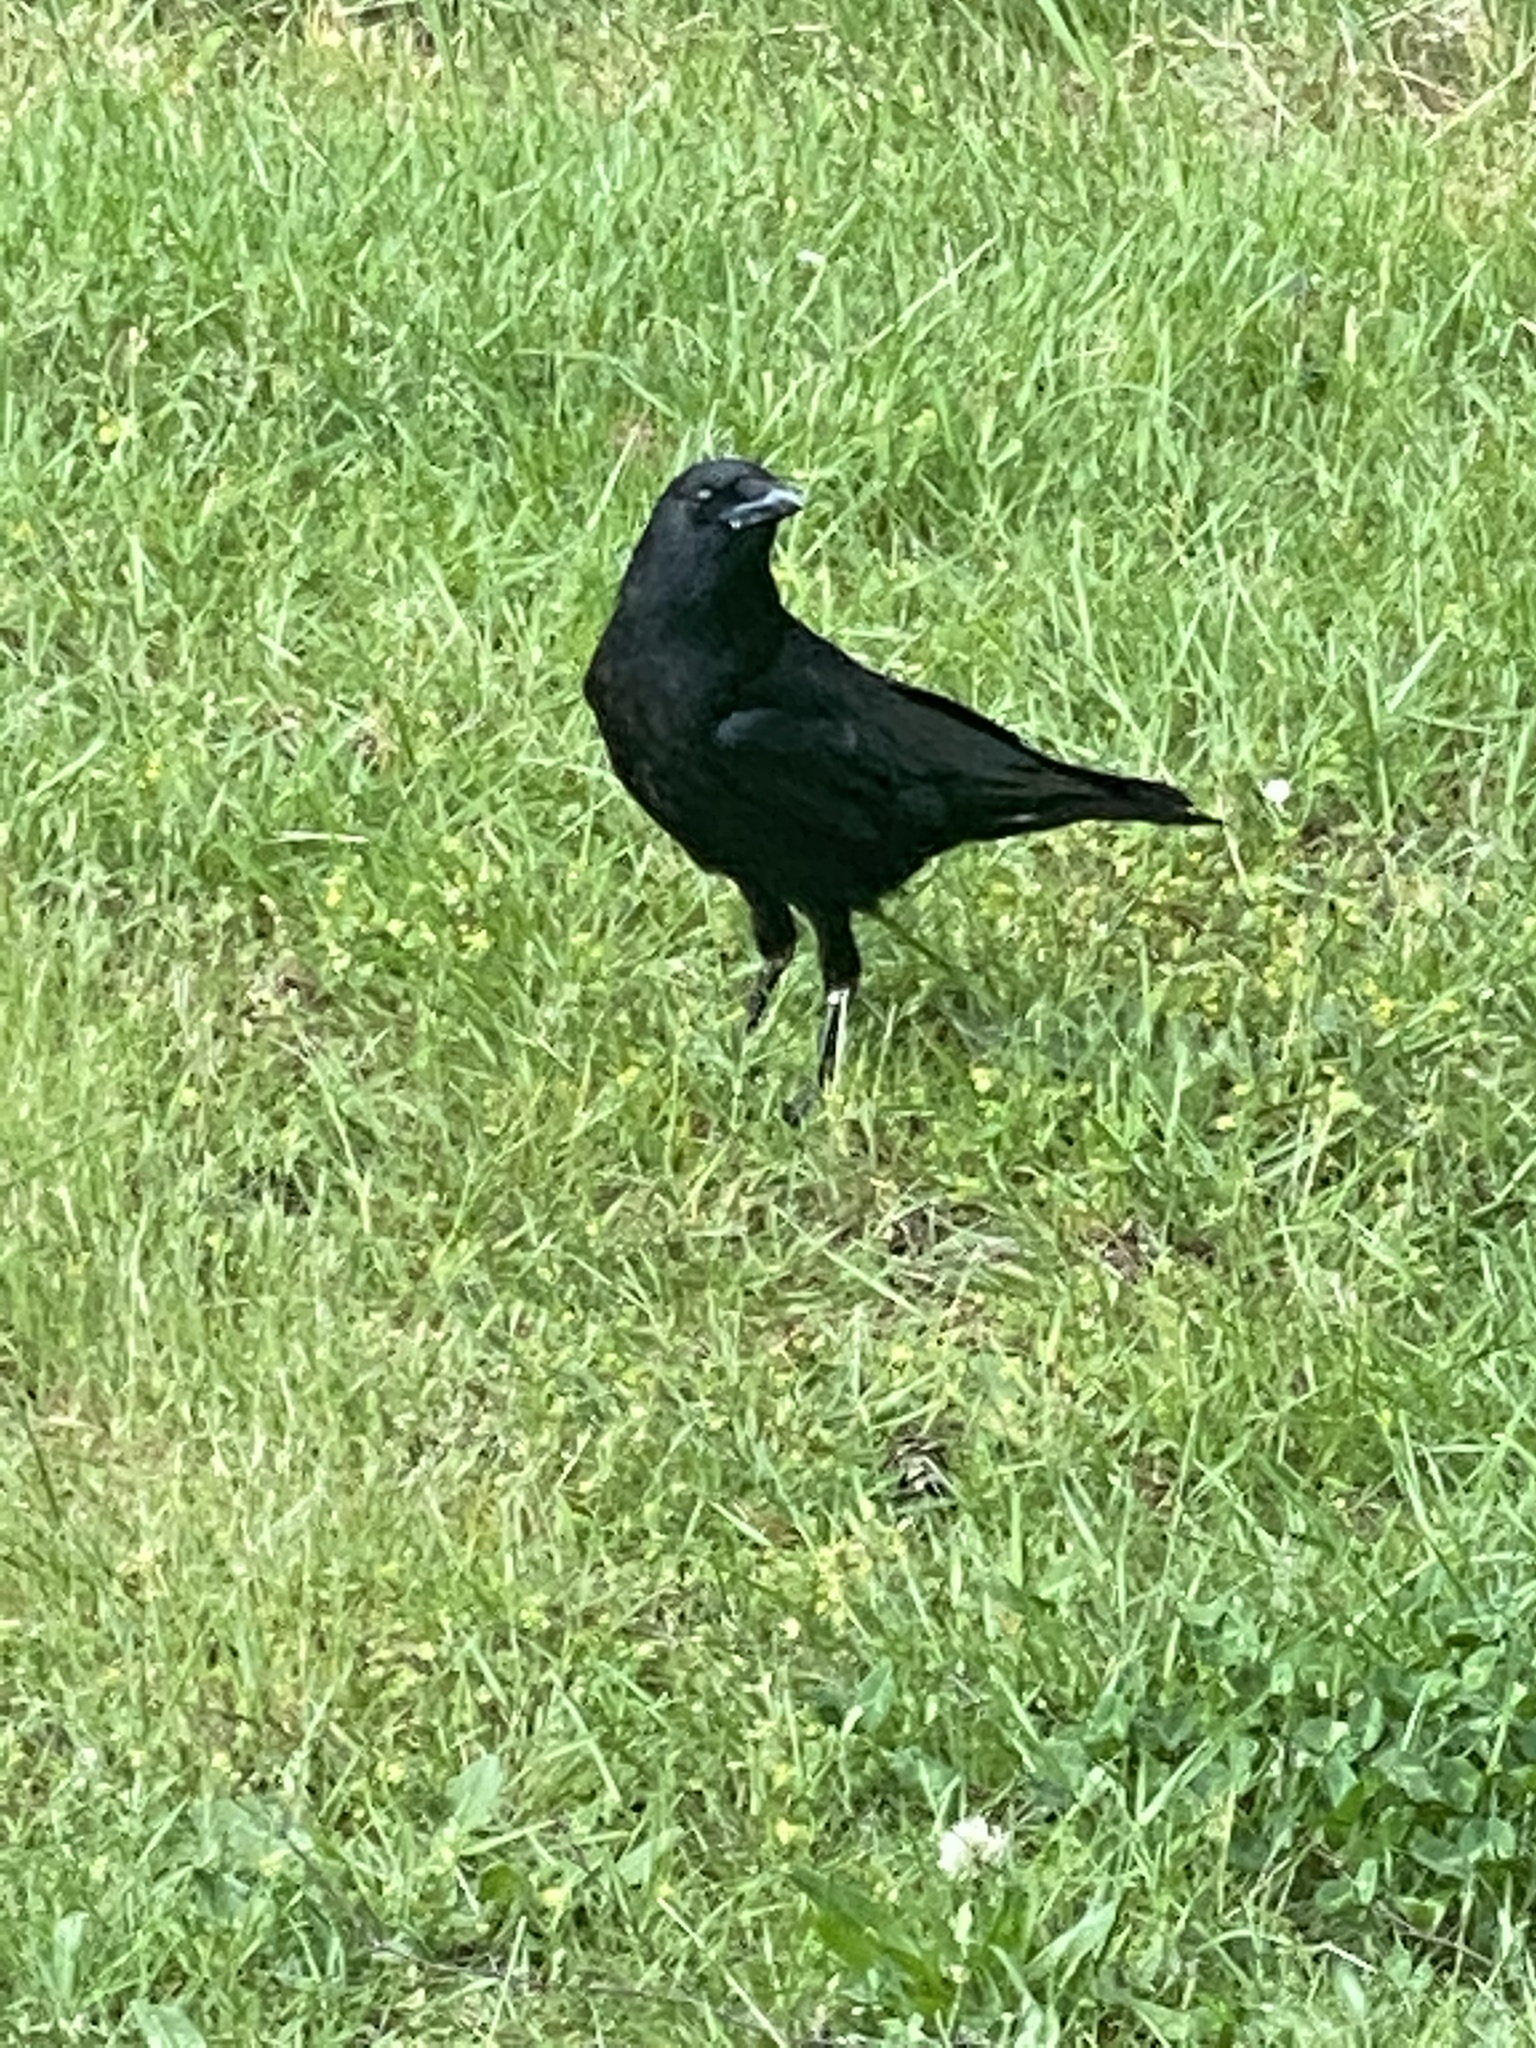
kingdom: Animalia
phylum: Chordata
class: Aves
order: Passeriformes
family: Corvidae
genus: Corvus
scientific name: Corvus brachyrhynchos
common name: American crow
